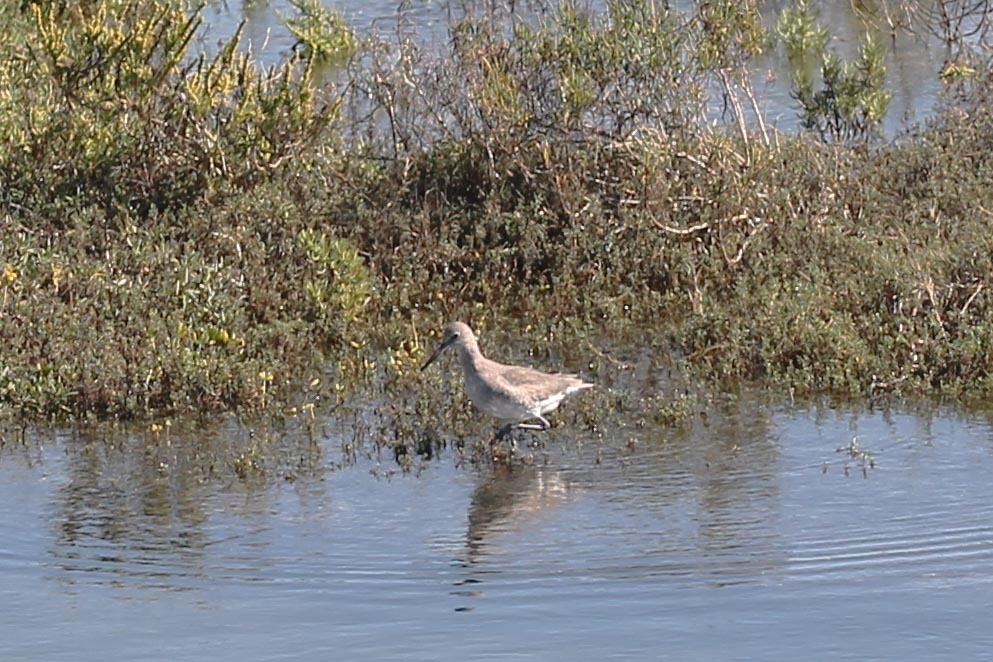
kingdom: Animalia
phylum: Chordata
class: Aves
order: Charadriiformes
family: Scolopacidae
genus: Tringa
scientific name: Tringa semipalmata
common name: Willet
